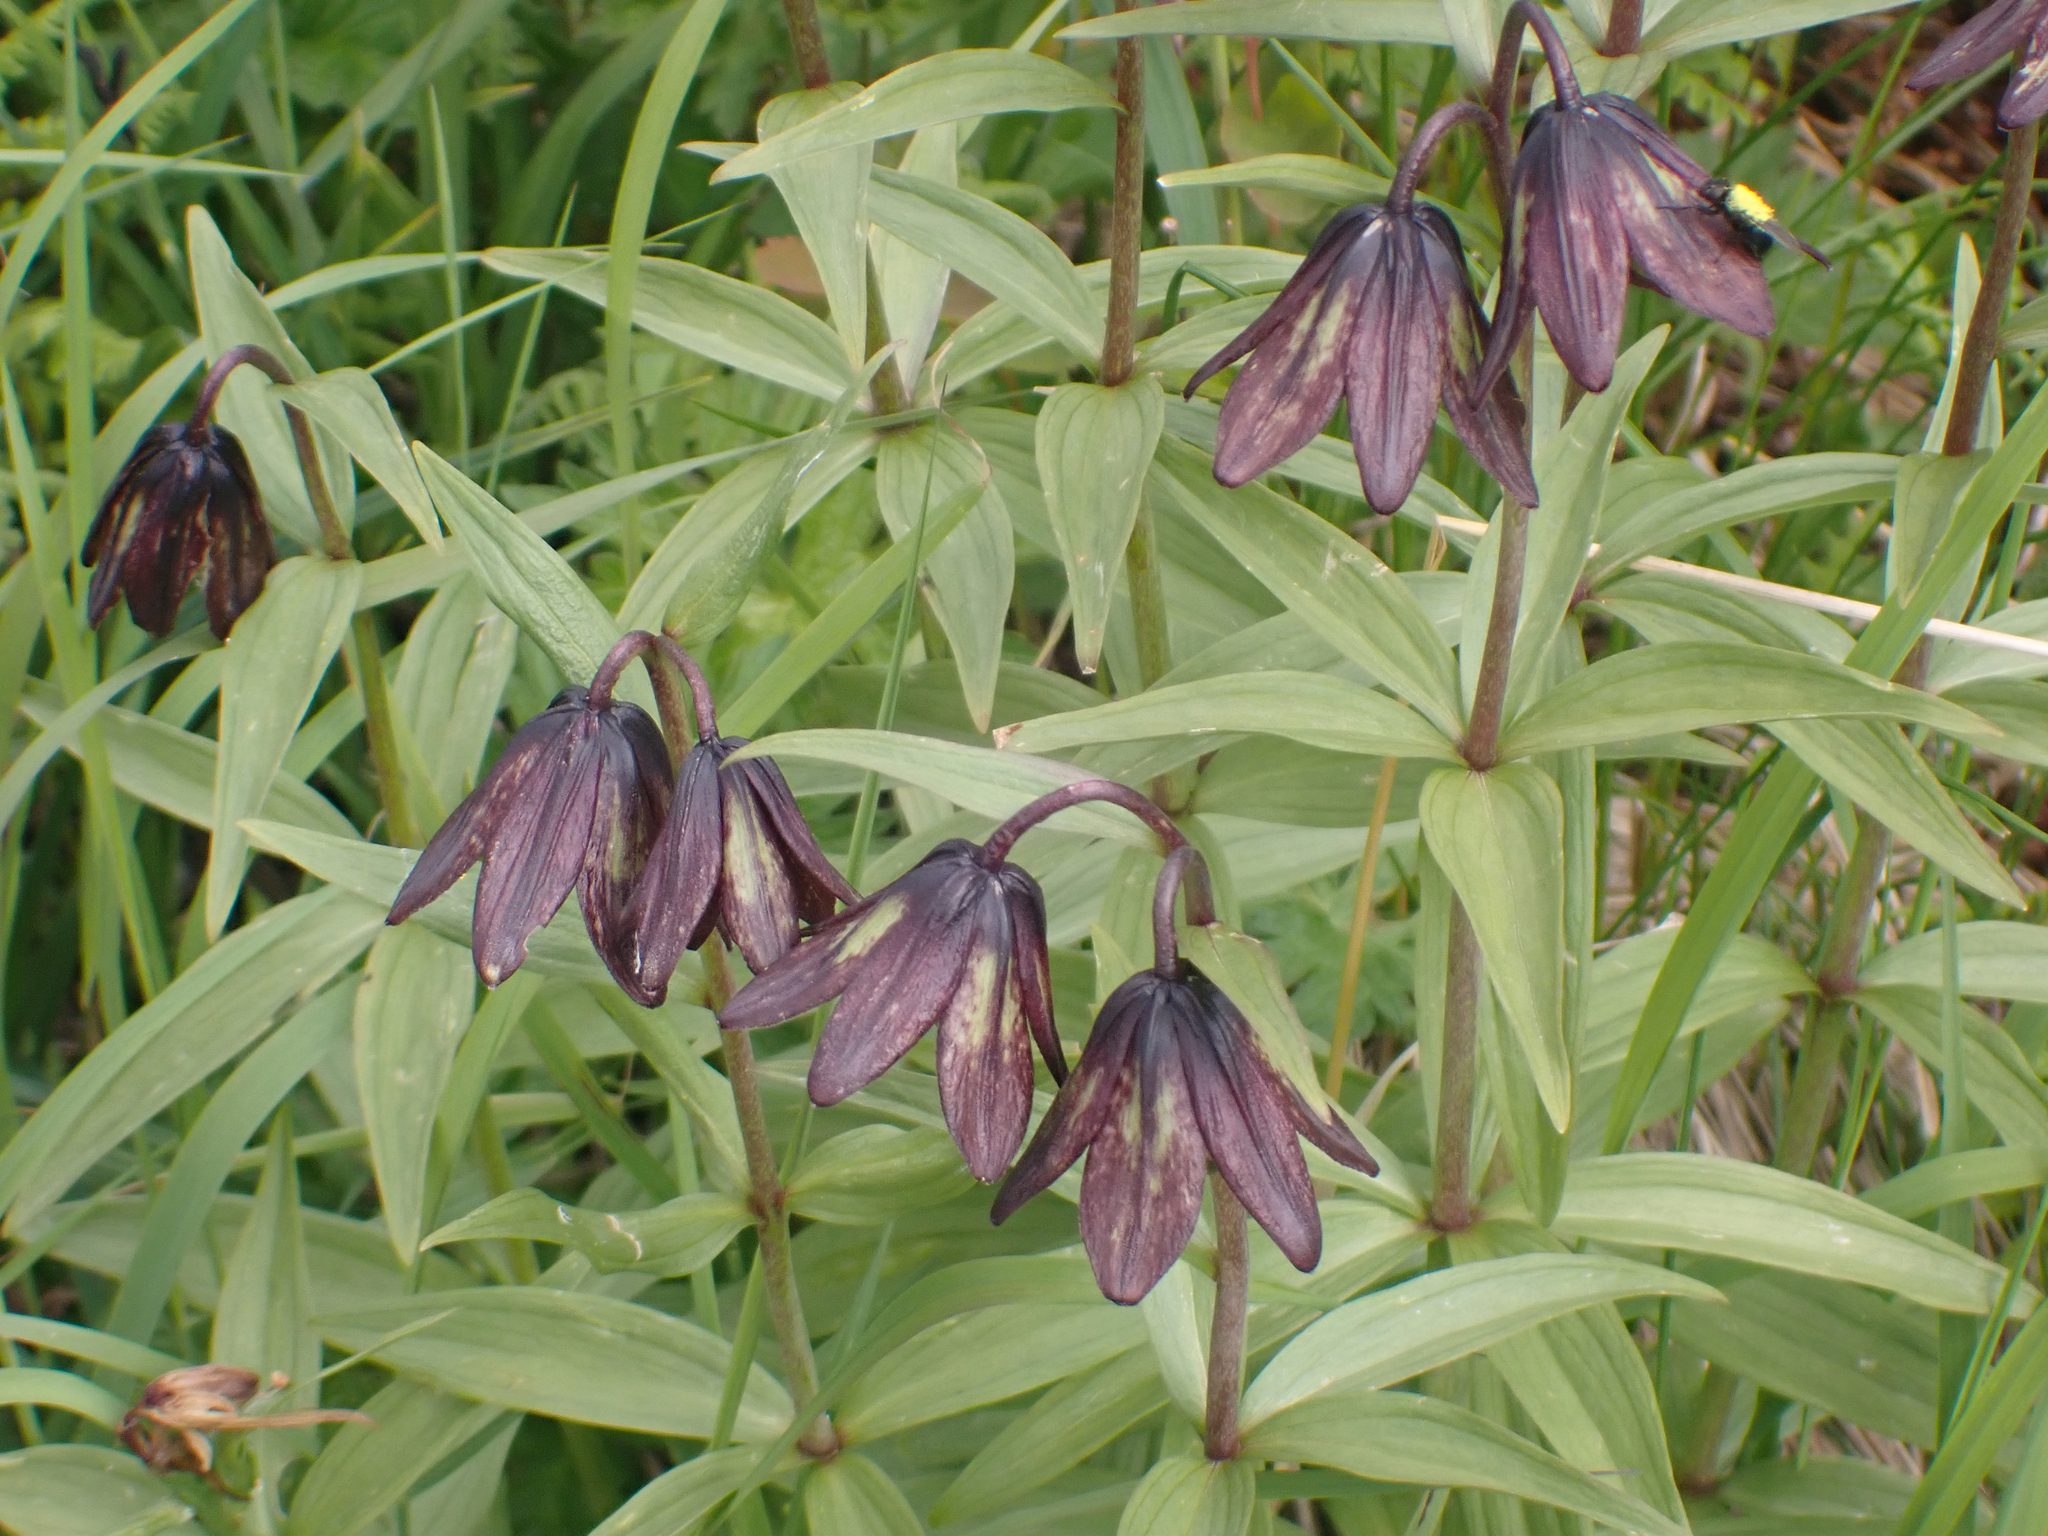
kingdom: Plantae
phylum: Tracheophyta
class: Liliopsida
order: Liliales
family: Liliaceae
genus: Fritillaria
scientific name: Fritillaria camschatcensis
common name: Kamchatka fritillary
